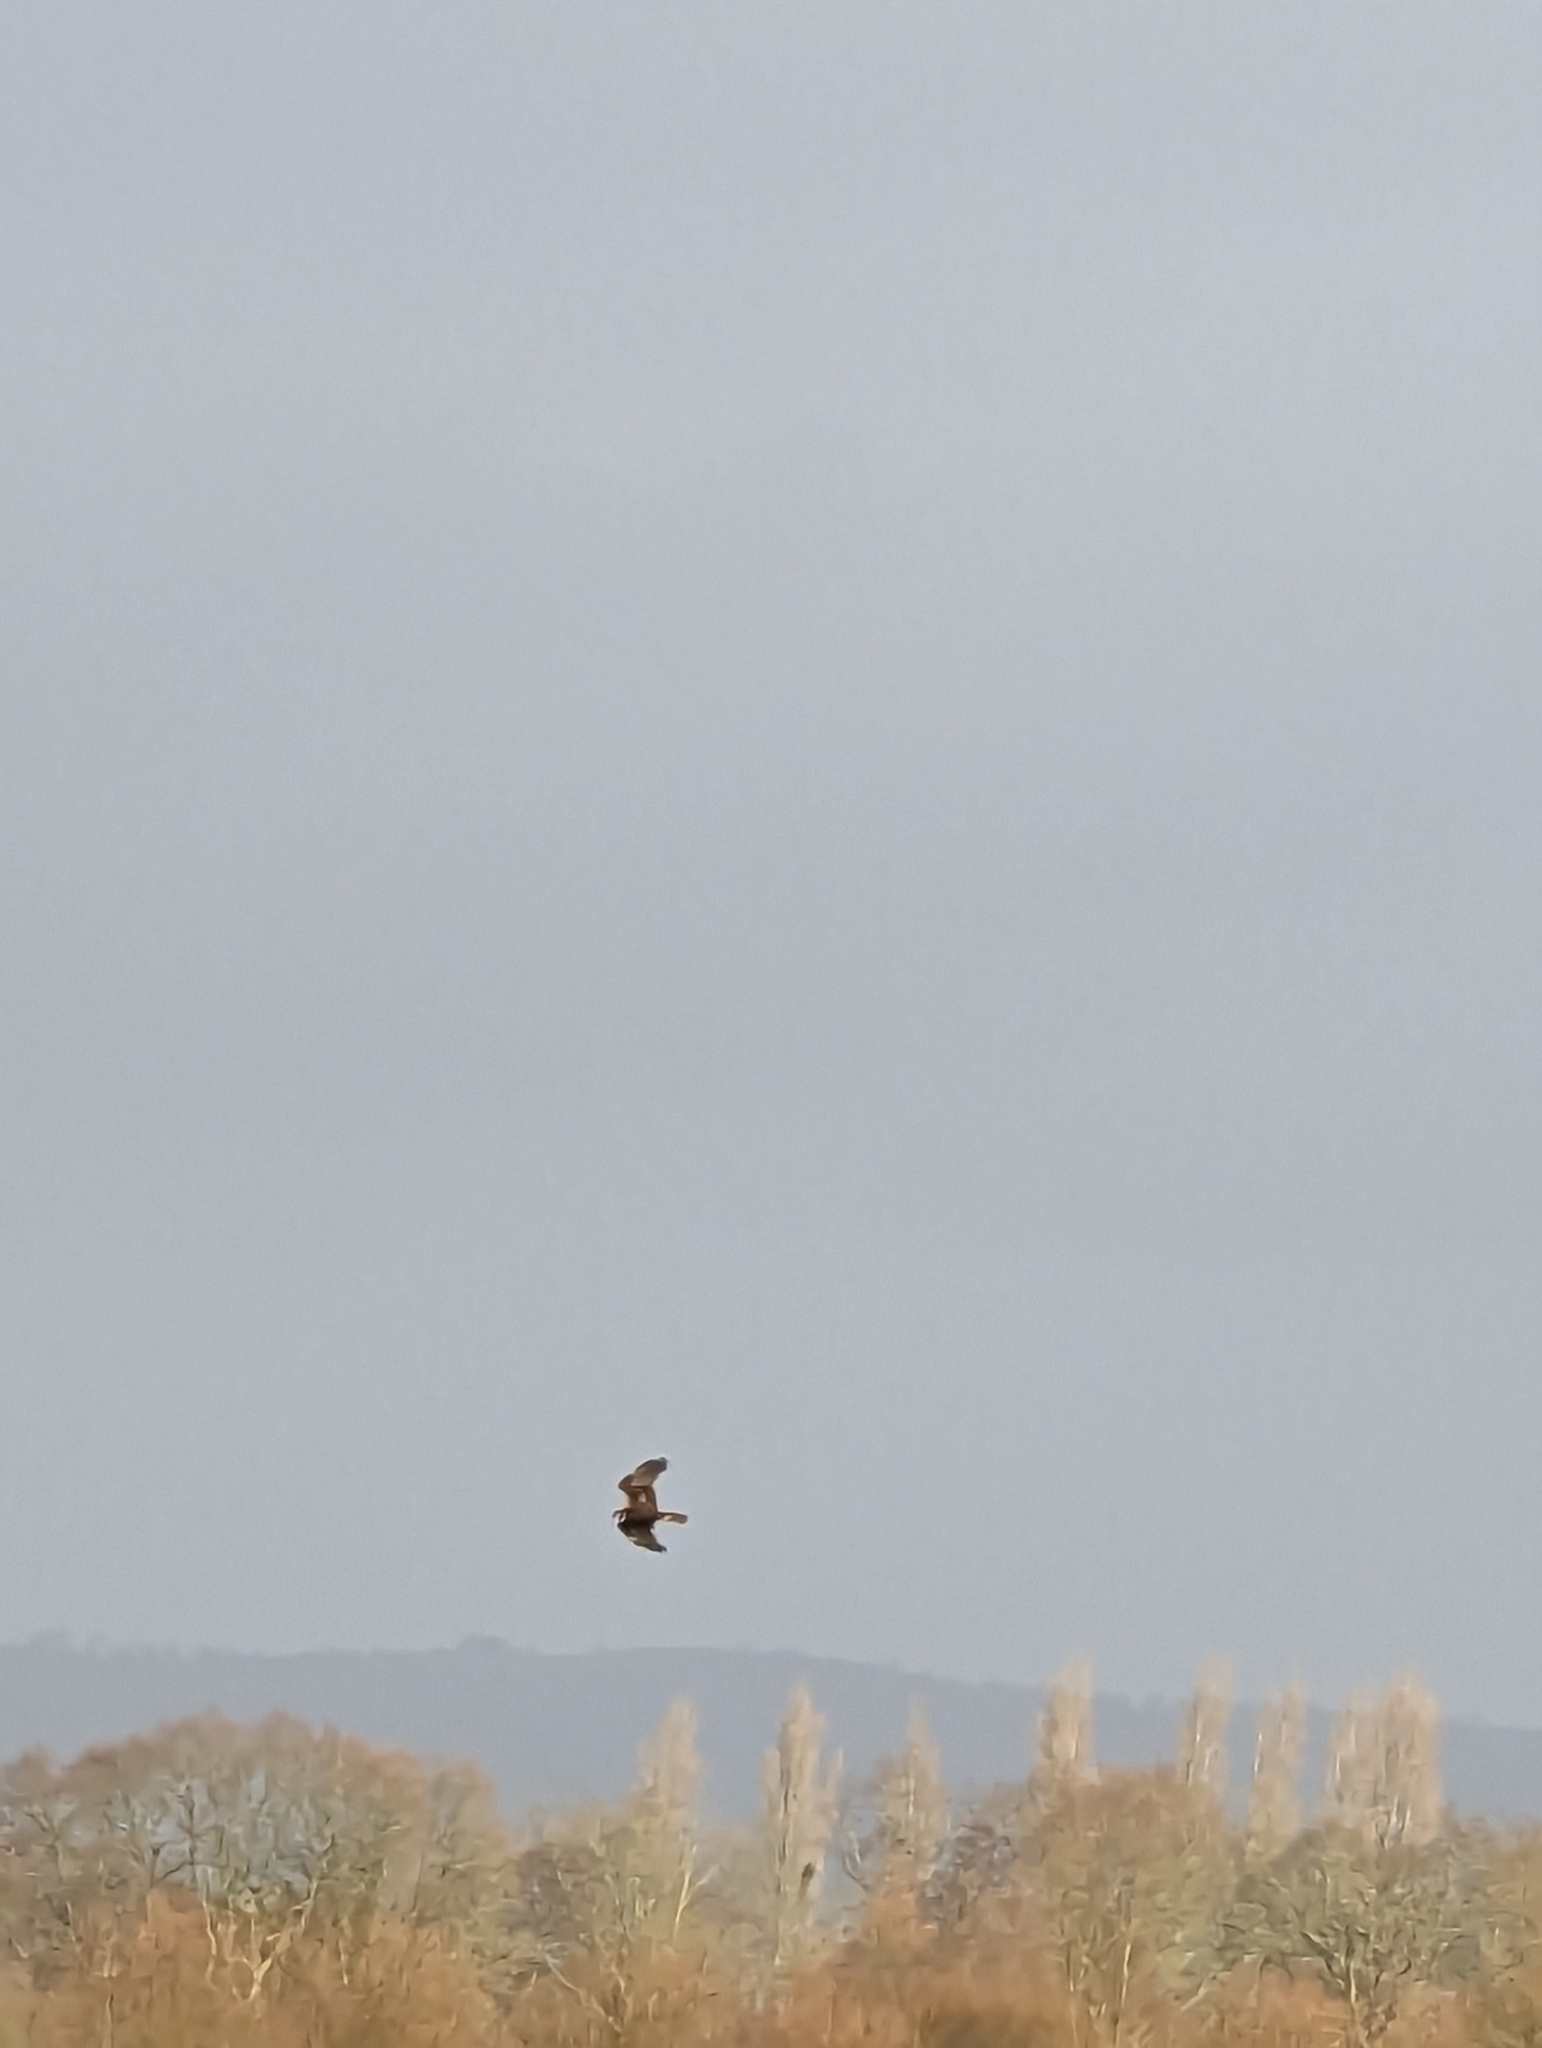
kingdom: Animalia
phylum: Chordata
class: Aves
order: Accipitriformes
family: Accipitridae
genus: Circus
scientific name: Circus aeruginosus
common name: Western marsh harrier
